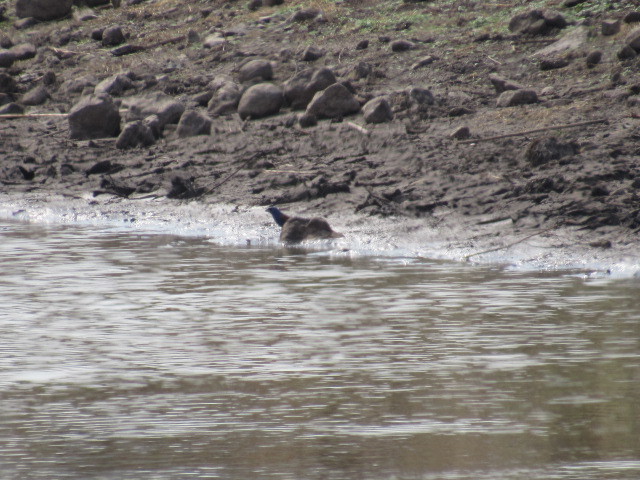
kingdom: Animalia
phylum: Chordata
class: Aves
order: Passeriformes
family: Cardinalidae
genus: Passerina
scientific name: Passerina caerulea
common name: Blue grosbeak
